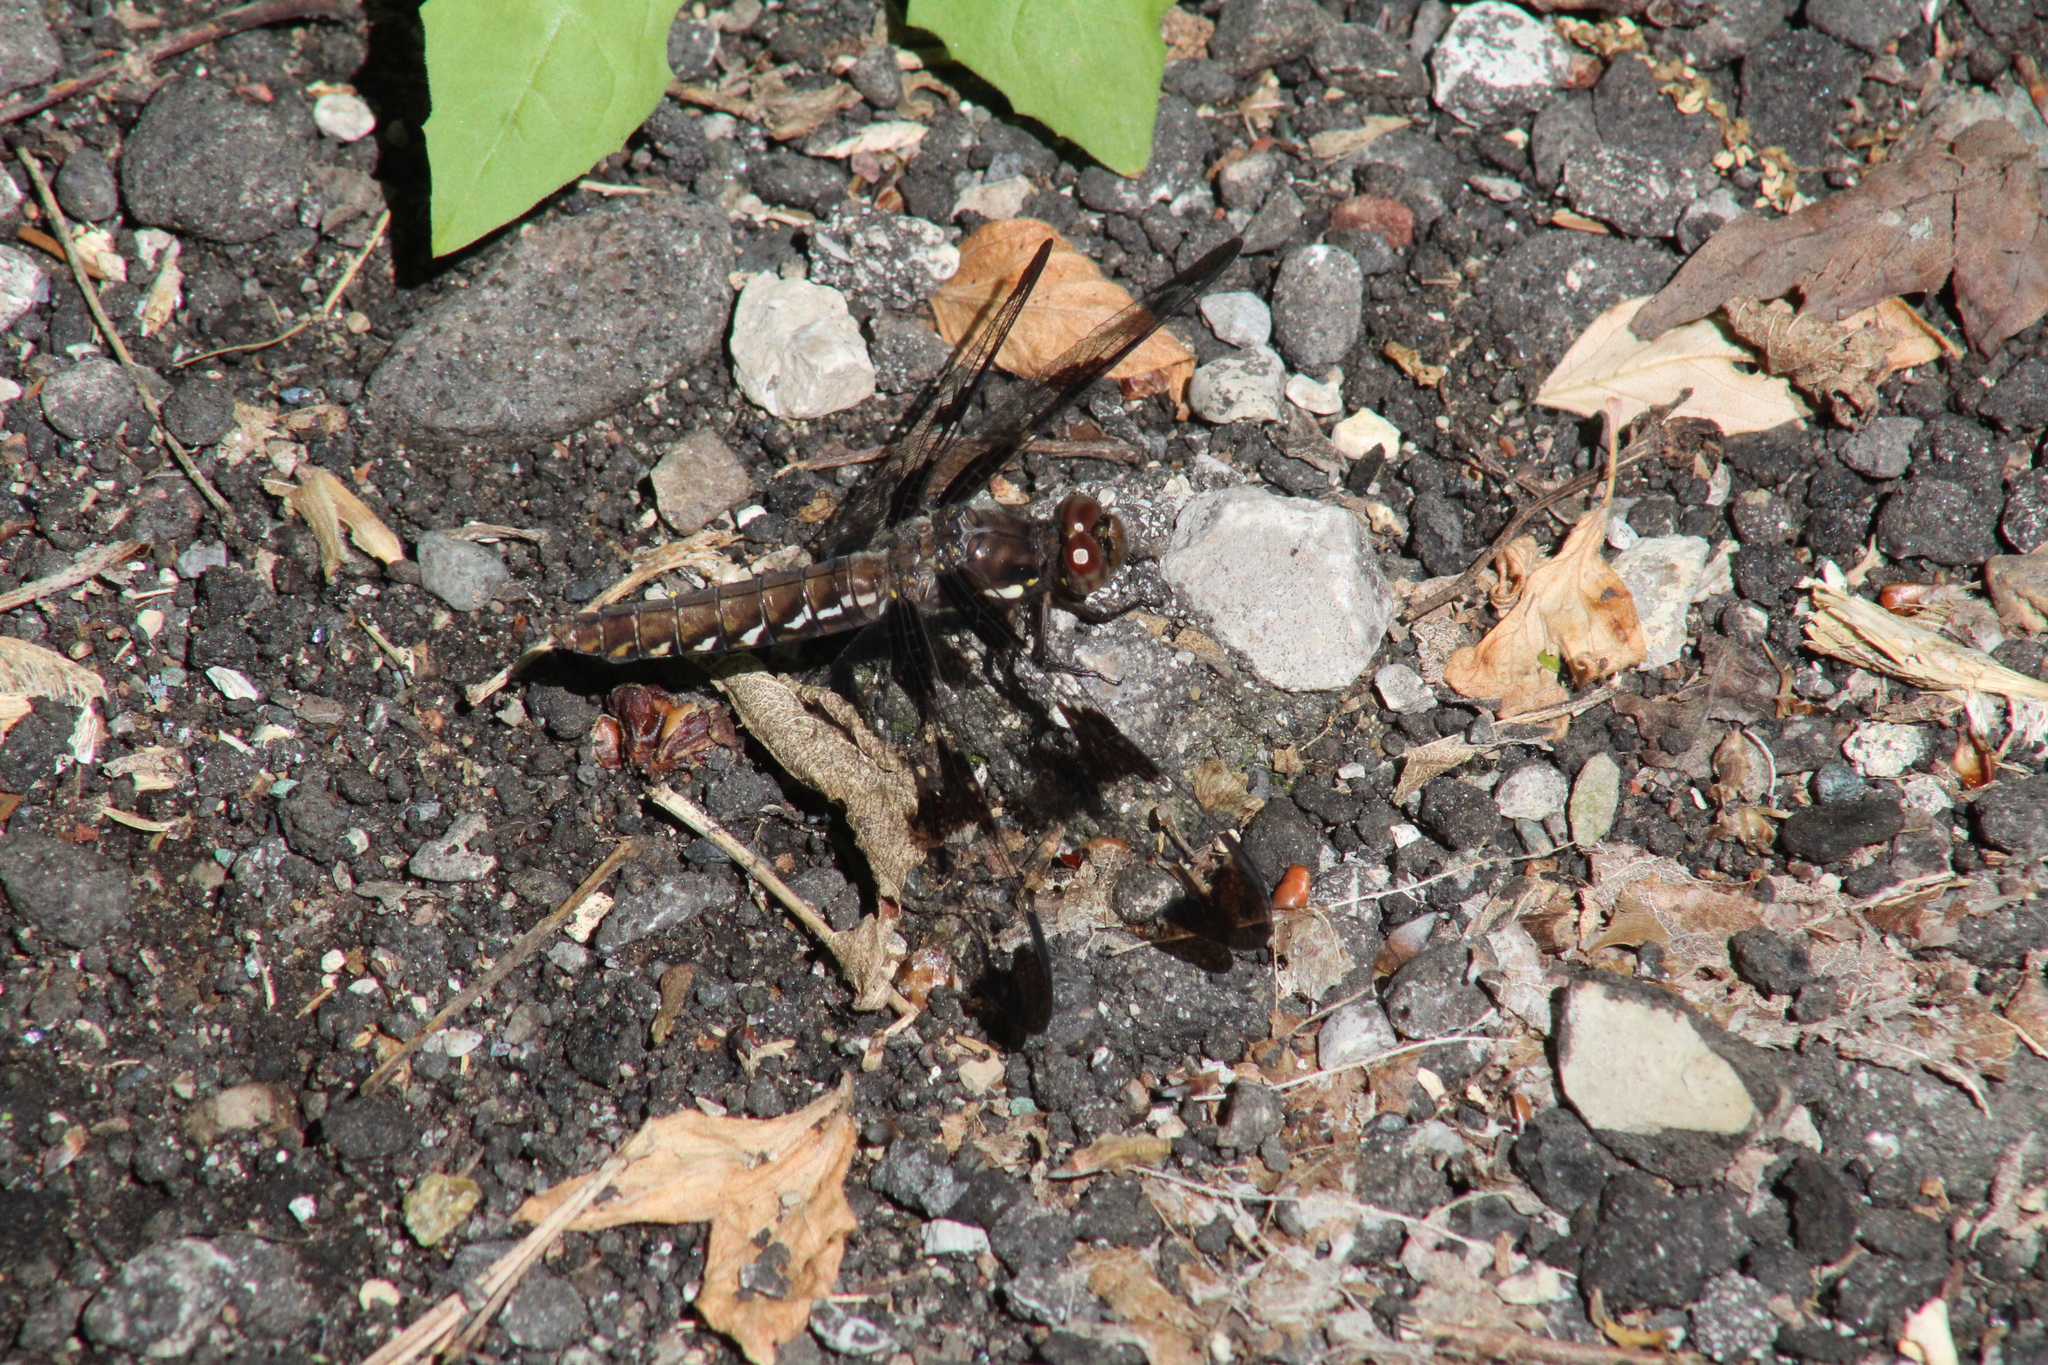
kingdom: Animalia
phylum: Arthropoda
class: Insecta
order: Odonata
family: Libellulidae
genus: Plathemis
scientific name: Plathemis lydia
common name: Common whitetail
